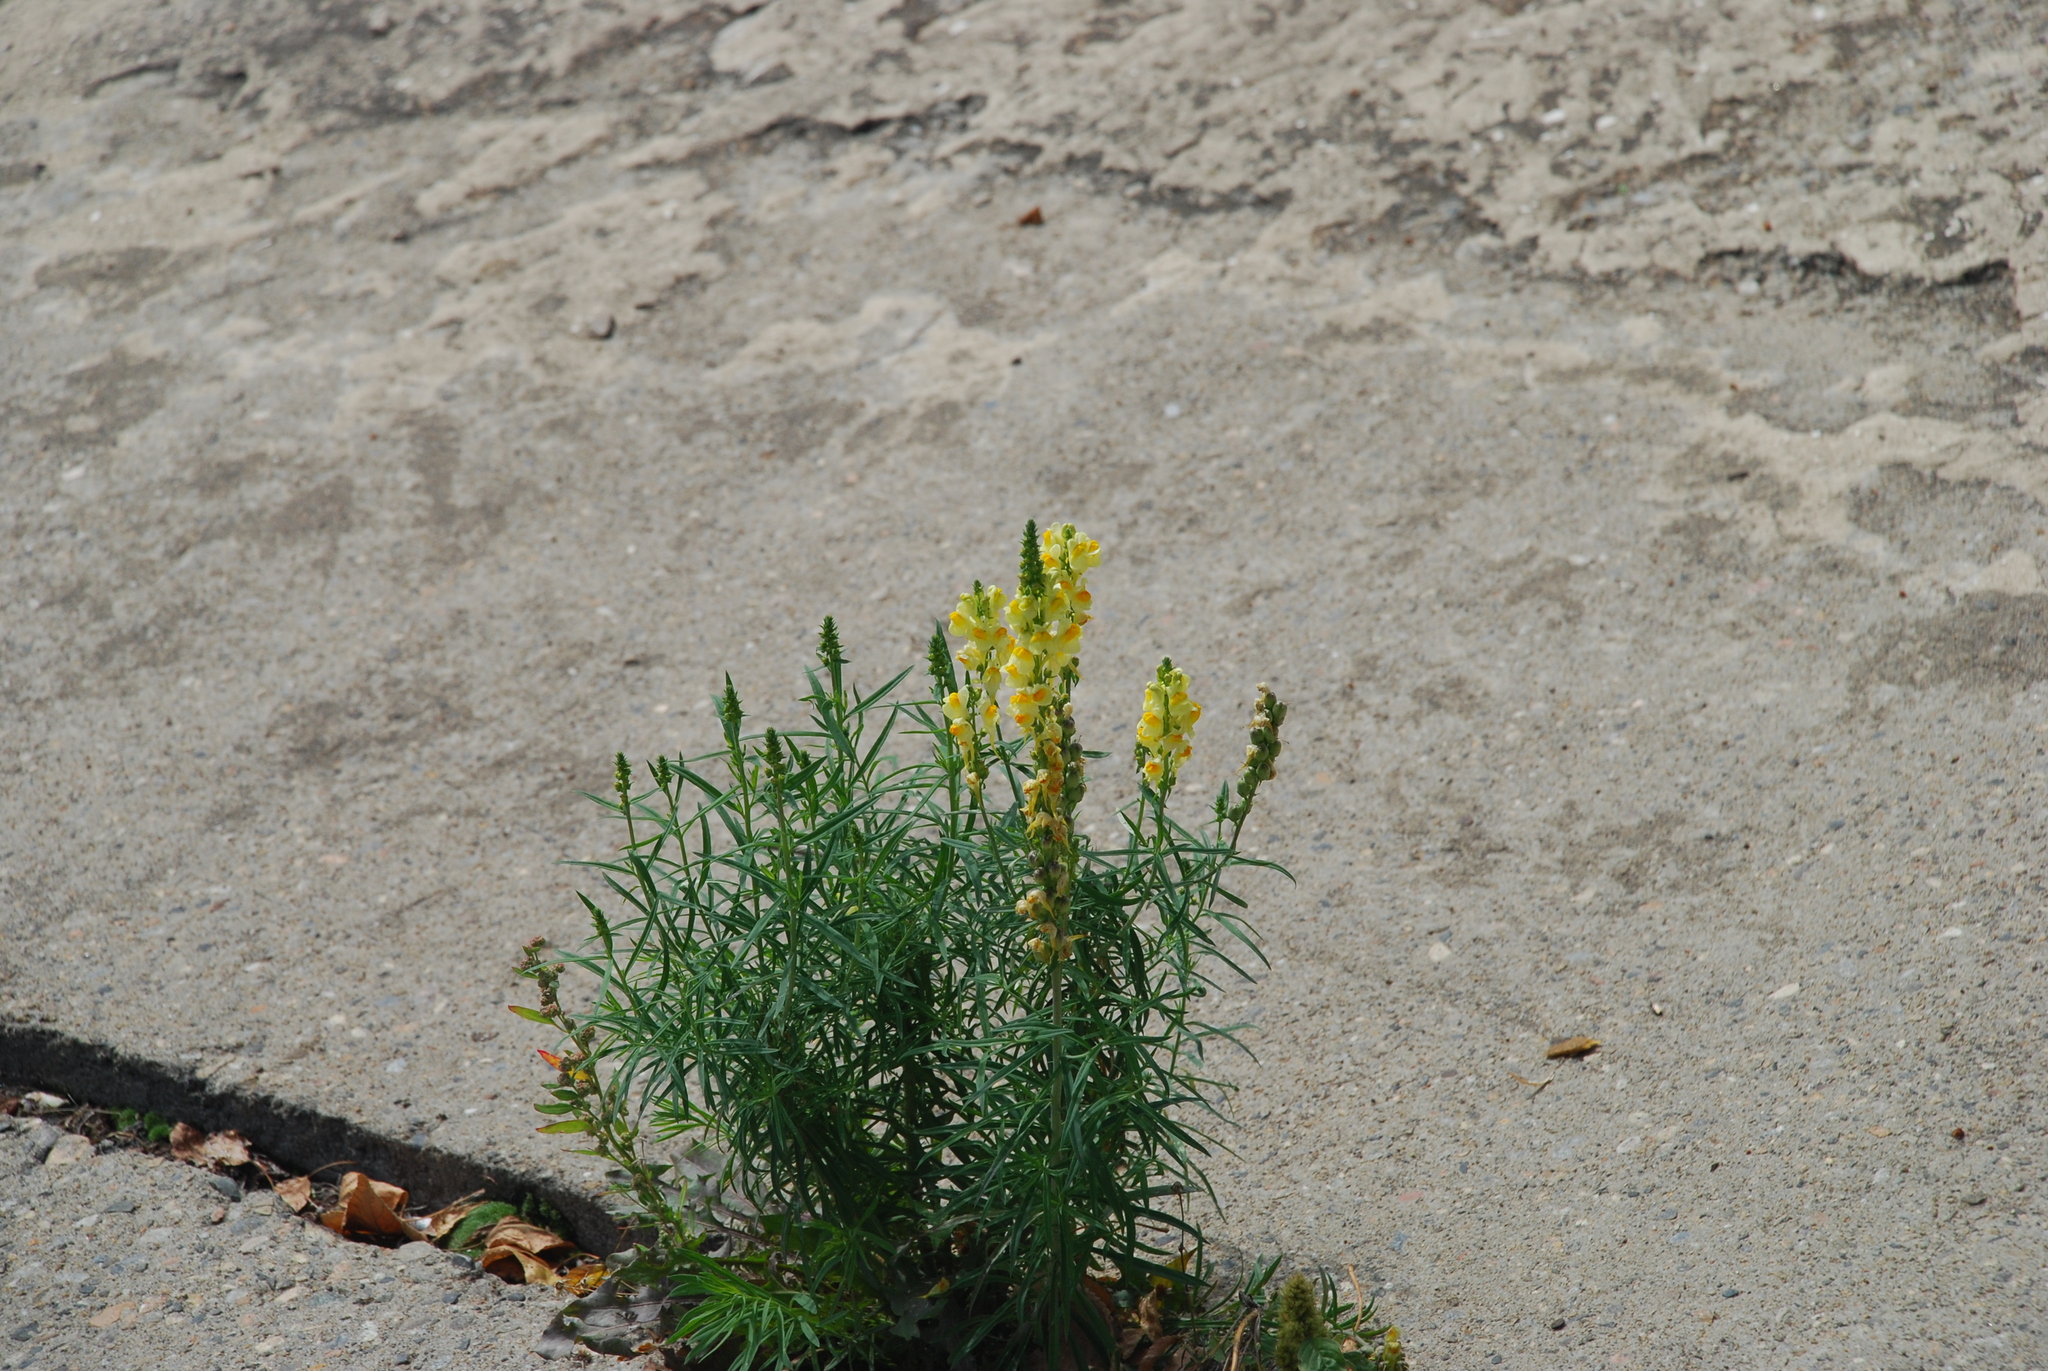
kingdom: Plantae
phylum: Tracheophyta
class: Magnoliopsida
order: Lamiales
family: Plantaginaceae
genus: Linaria
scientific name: Linaria vulgaris
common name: Butter and eggs
